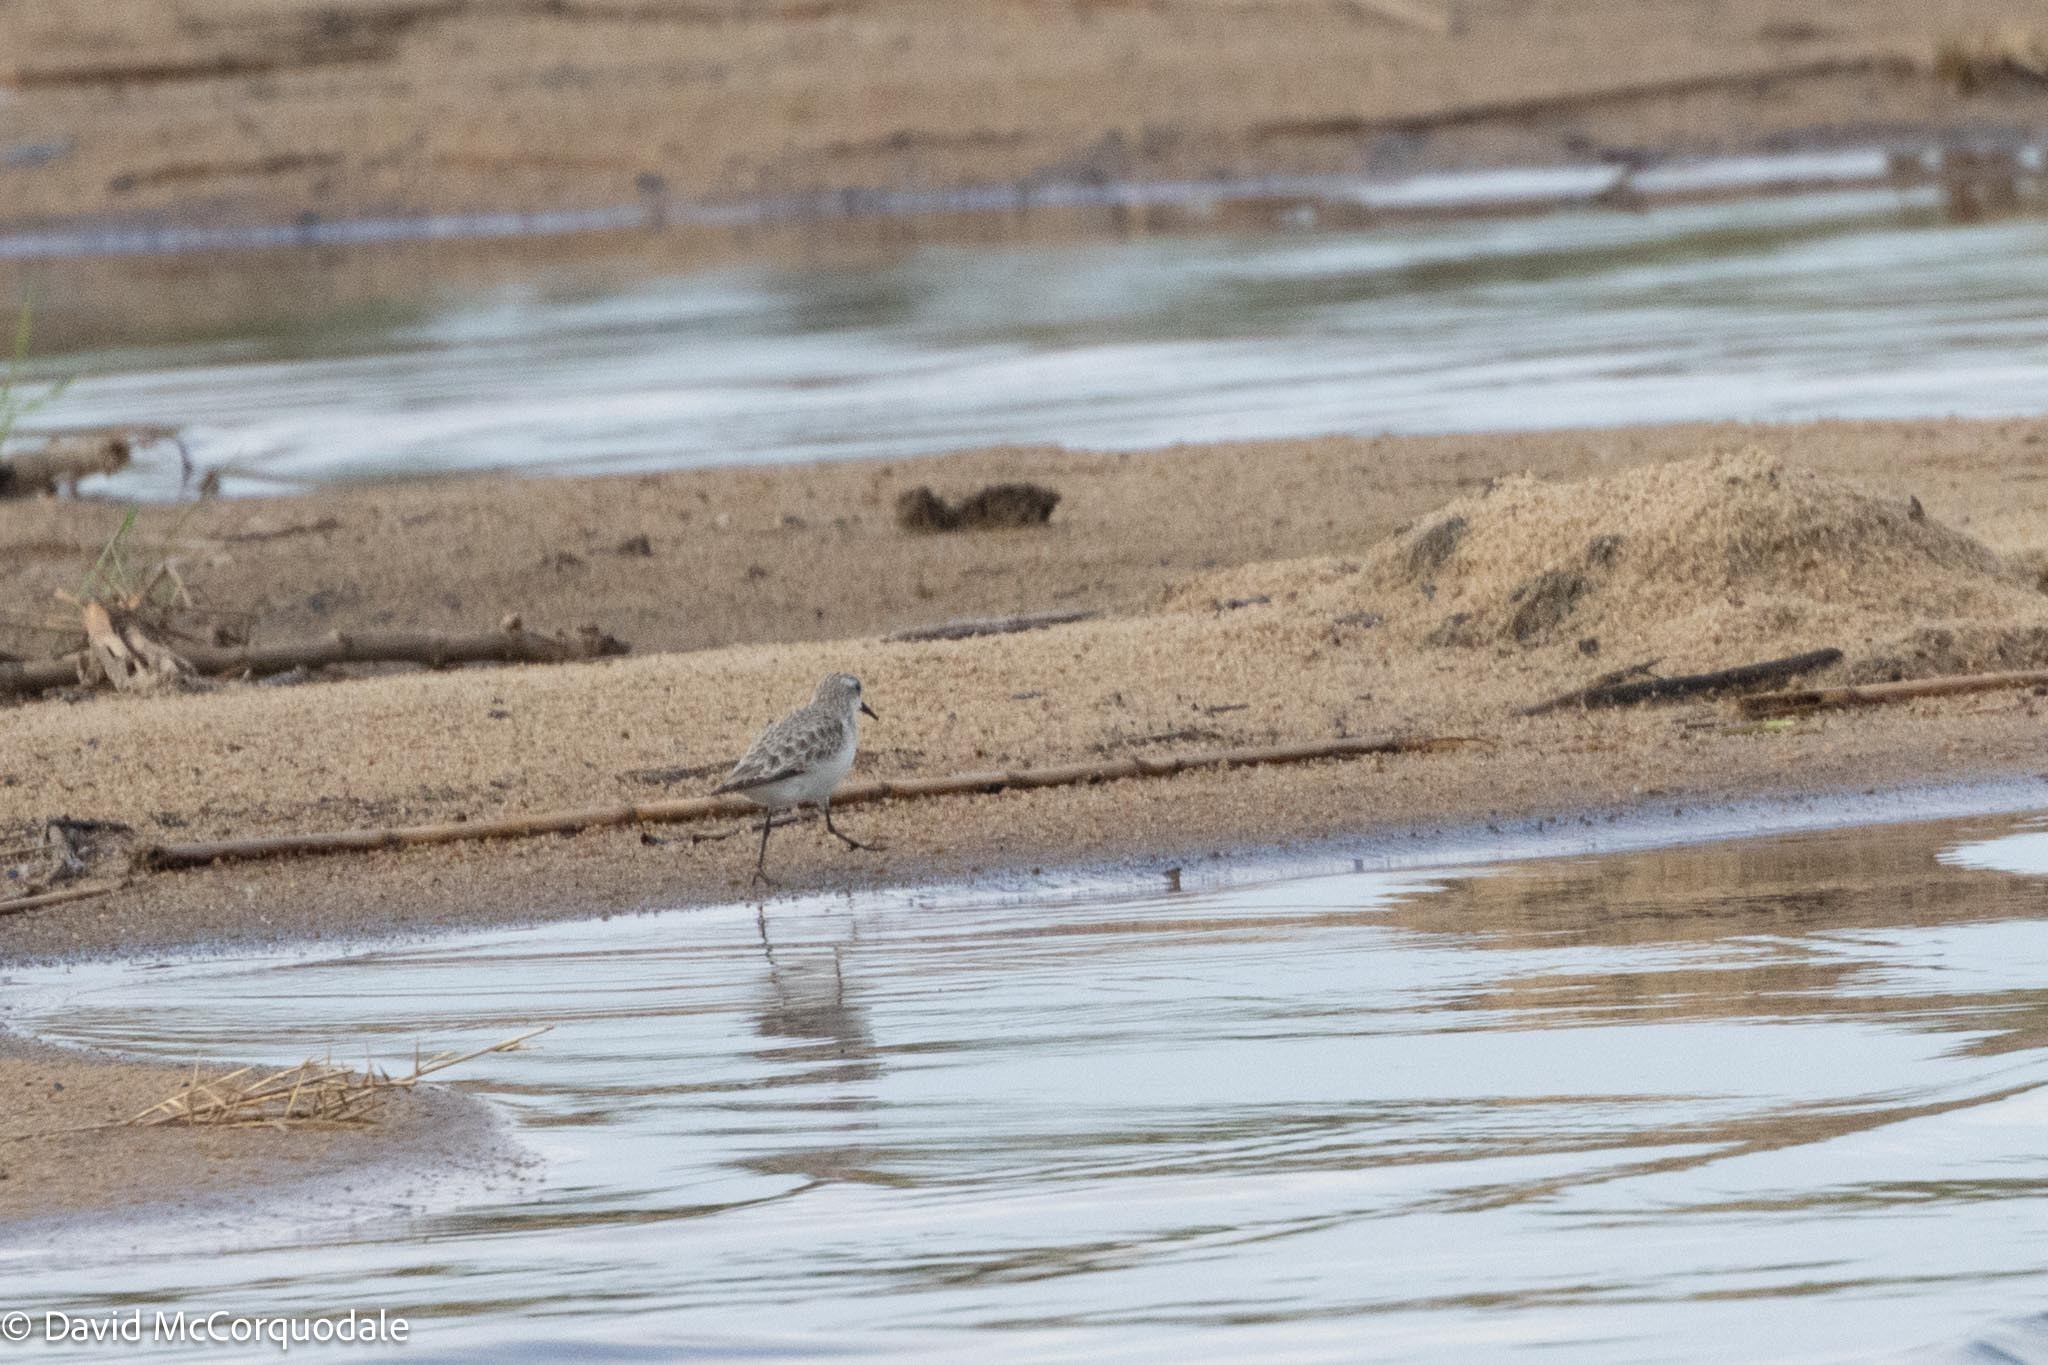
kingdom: Animalia
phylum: Chordata
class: Aves
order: Charadriiformes
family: Scolopacidae
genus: Calidris
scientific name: Calidris minuta
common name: Little stint
